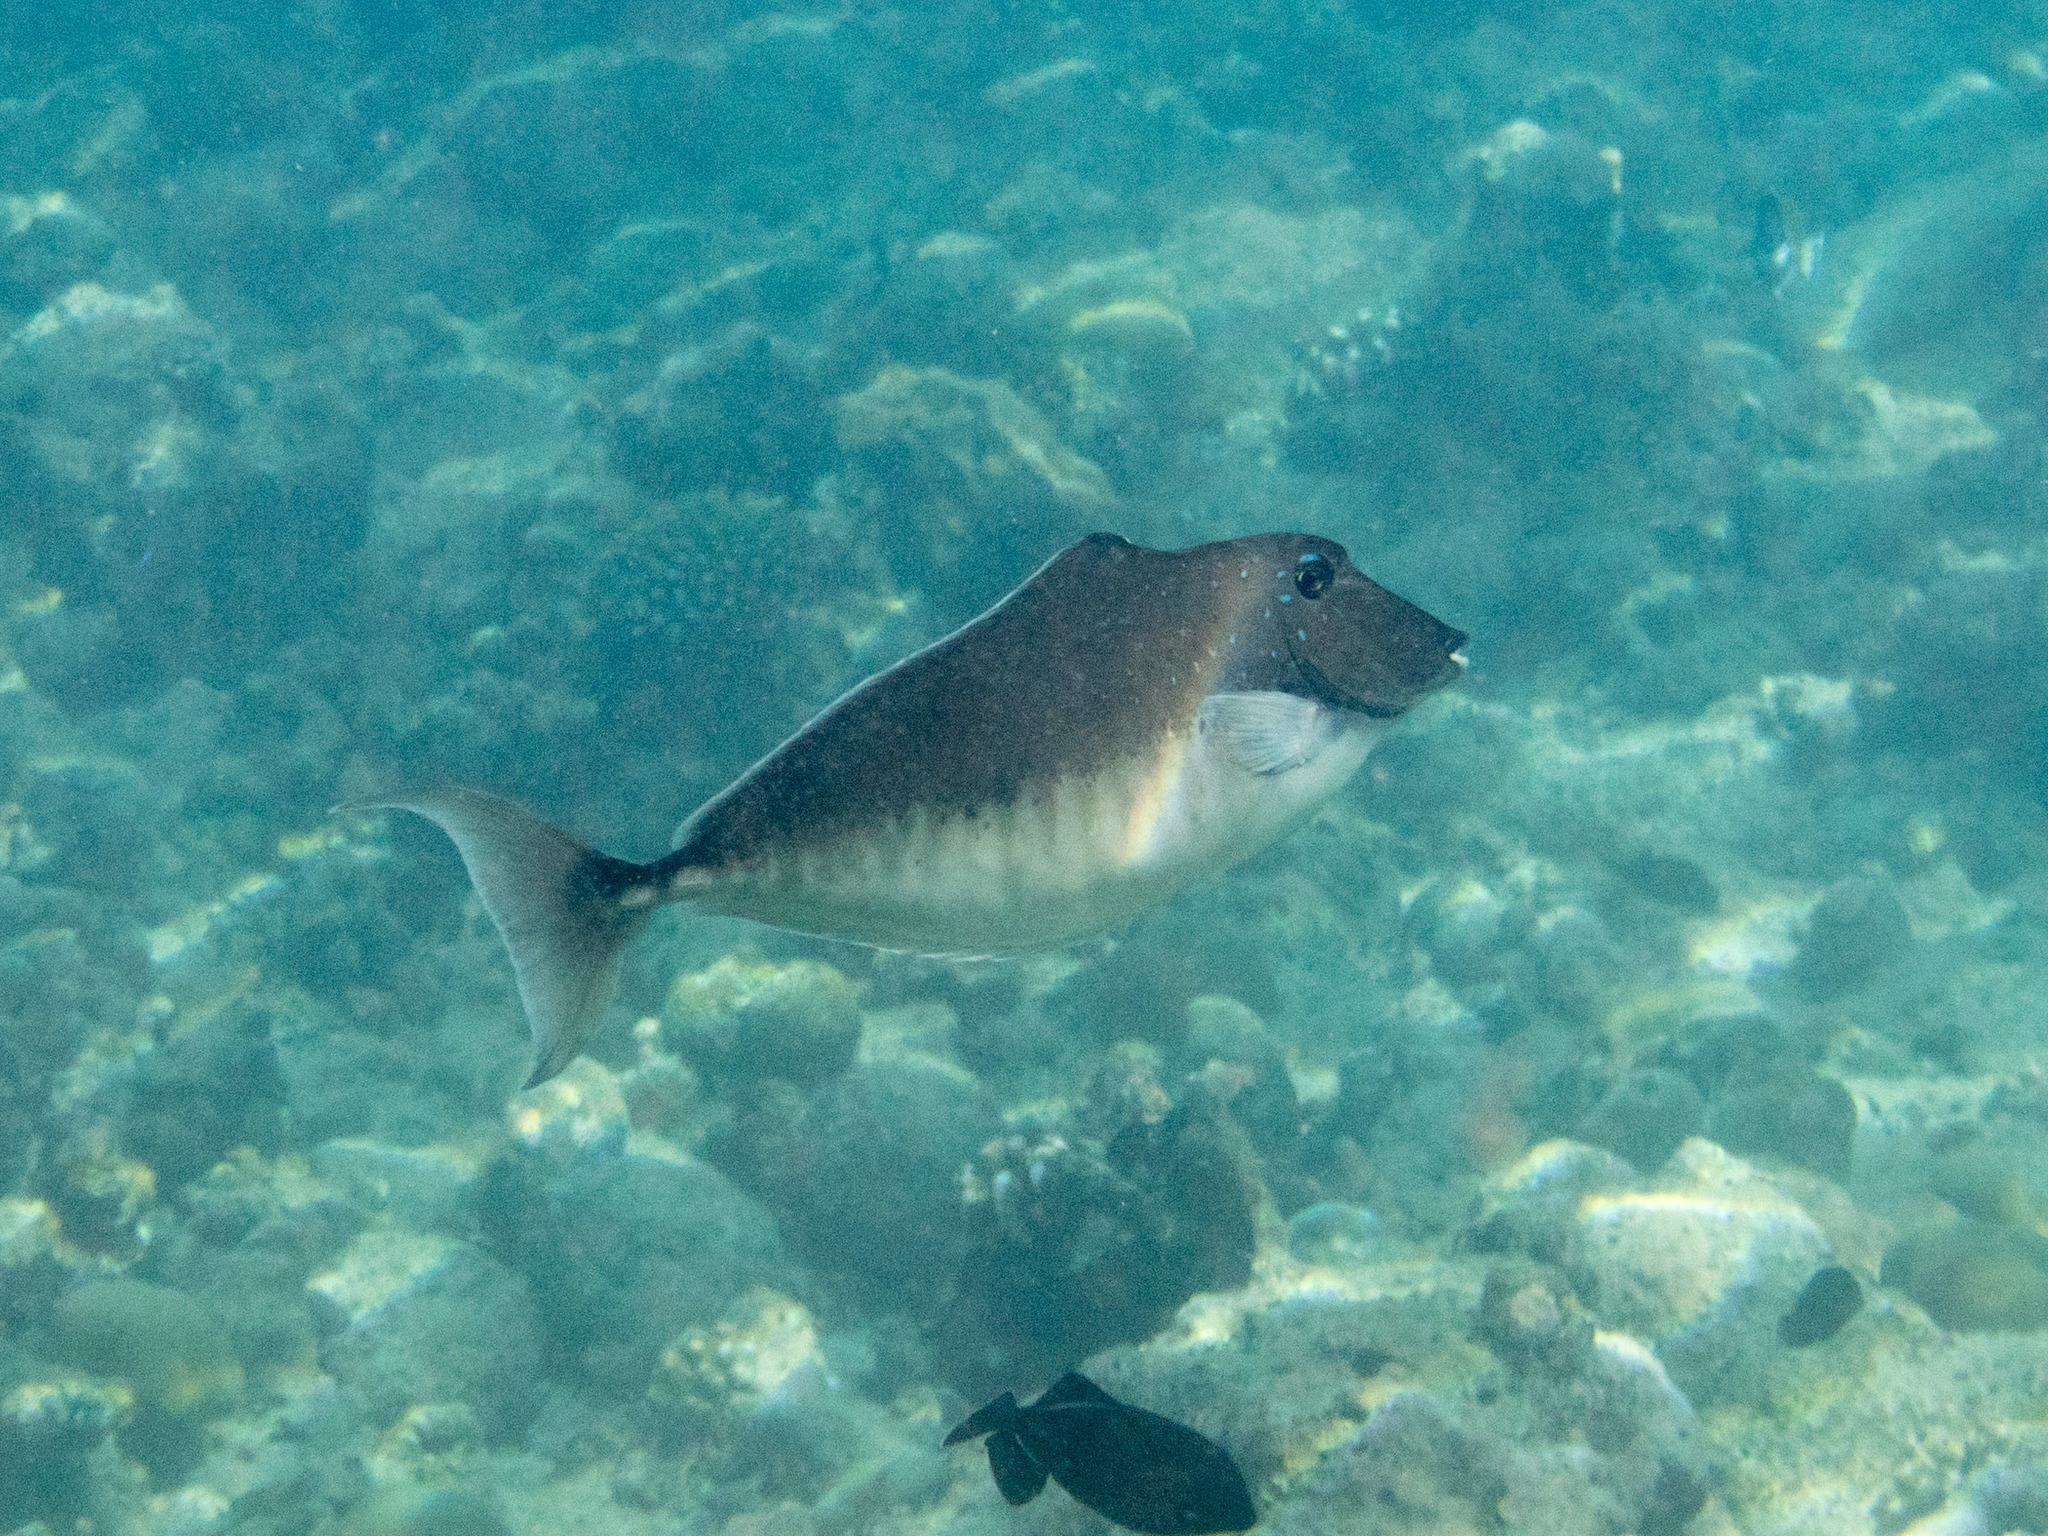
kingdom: Animalia
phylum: Chordata
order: Perciformes
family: Acanthuridae
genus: Naso
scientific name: Naso brachycentron
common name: Humpback unicornfish
